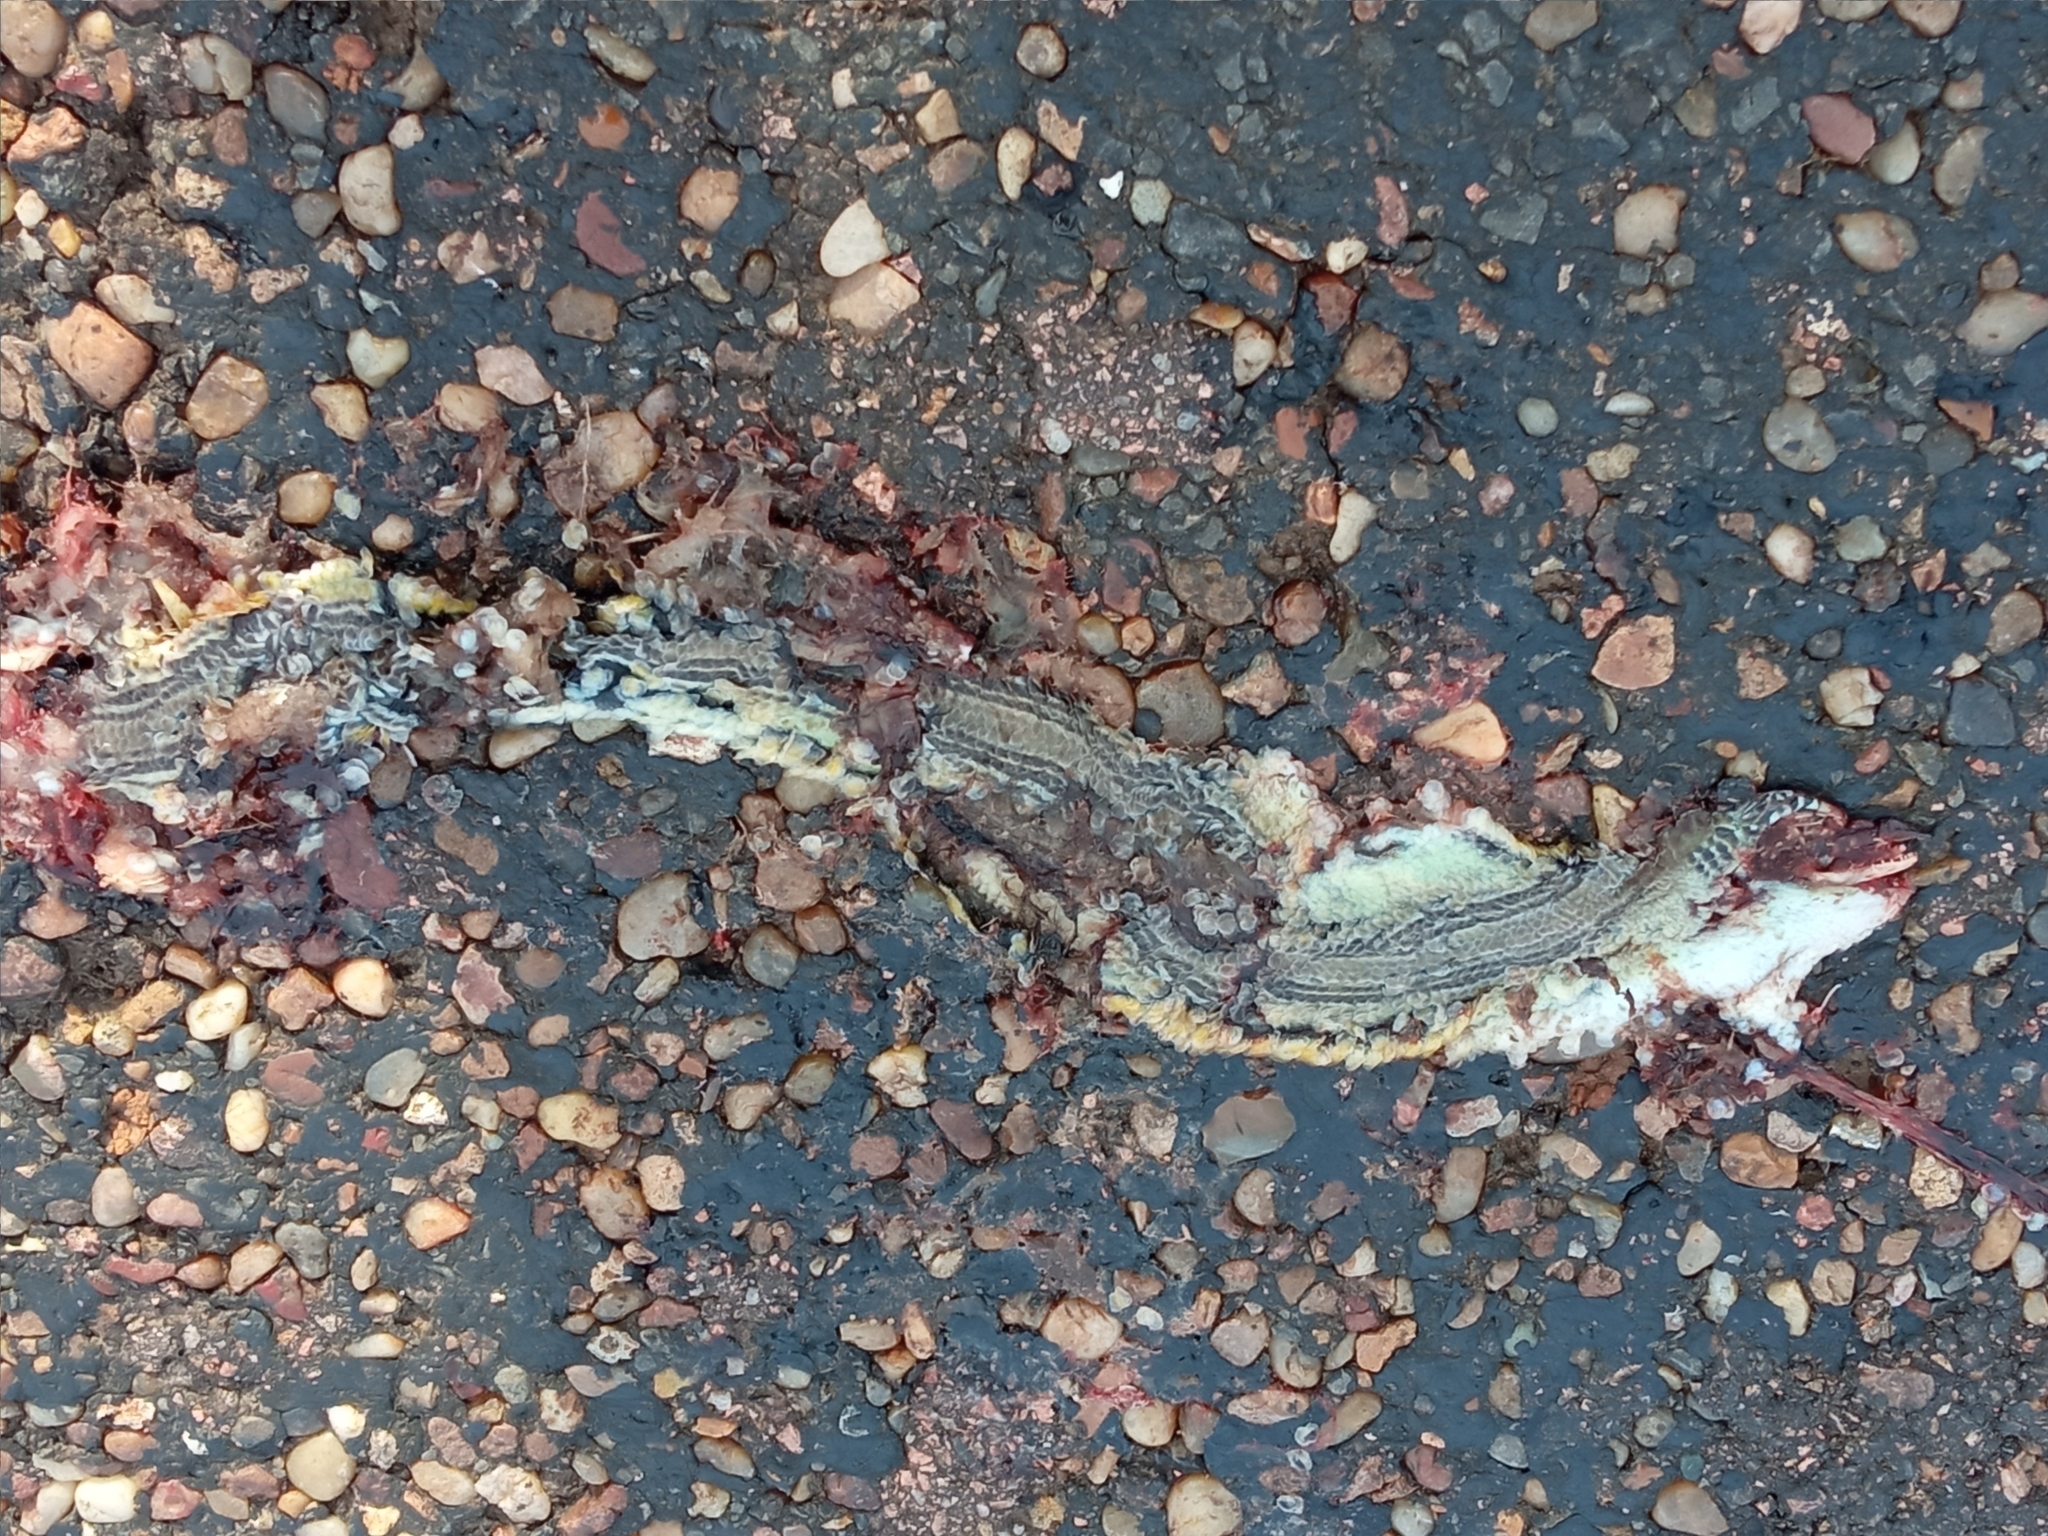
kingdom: Animalia
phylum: Chordata
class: Squamata
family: Diploglossidae
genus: Ophiodes
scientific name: Ophiodes striatus
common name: Striped worm lizard
